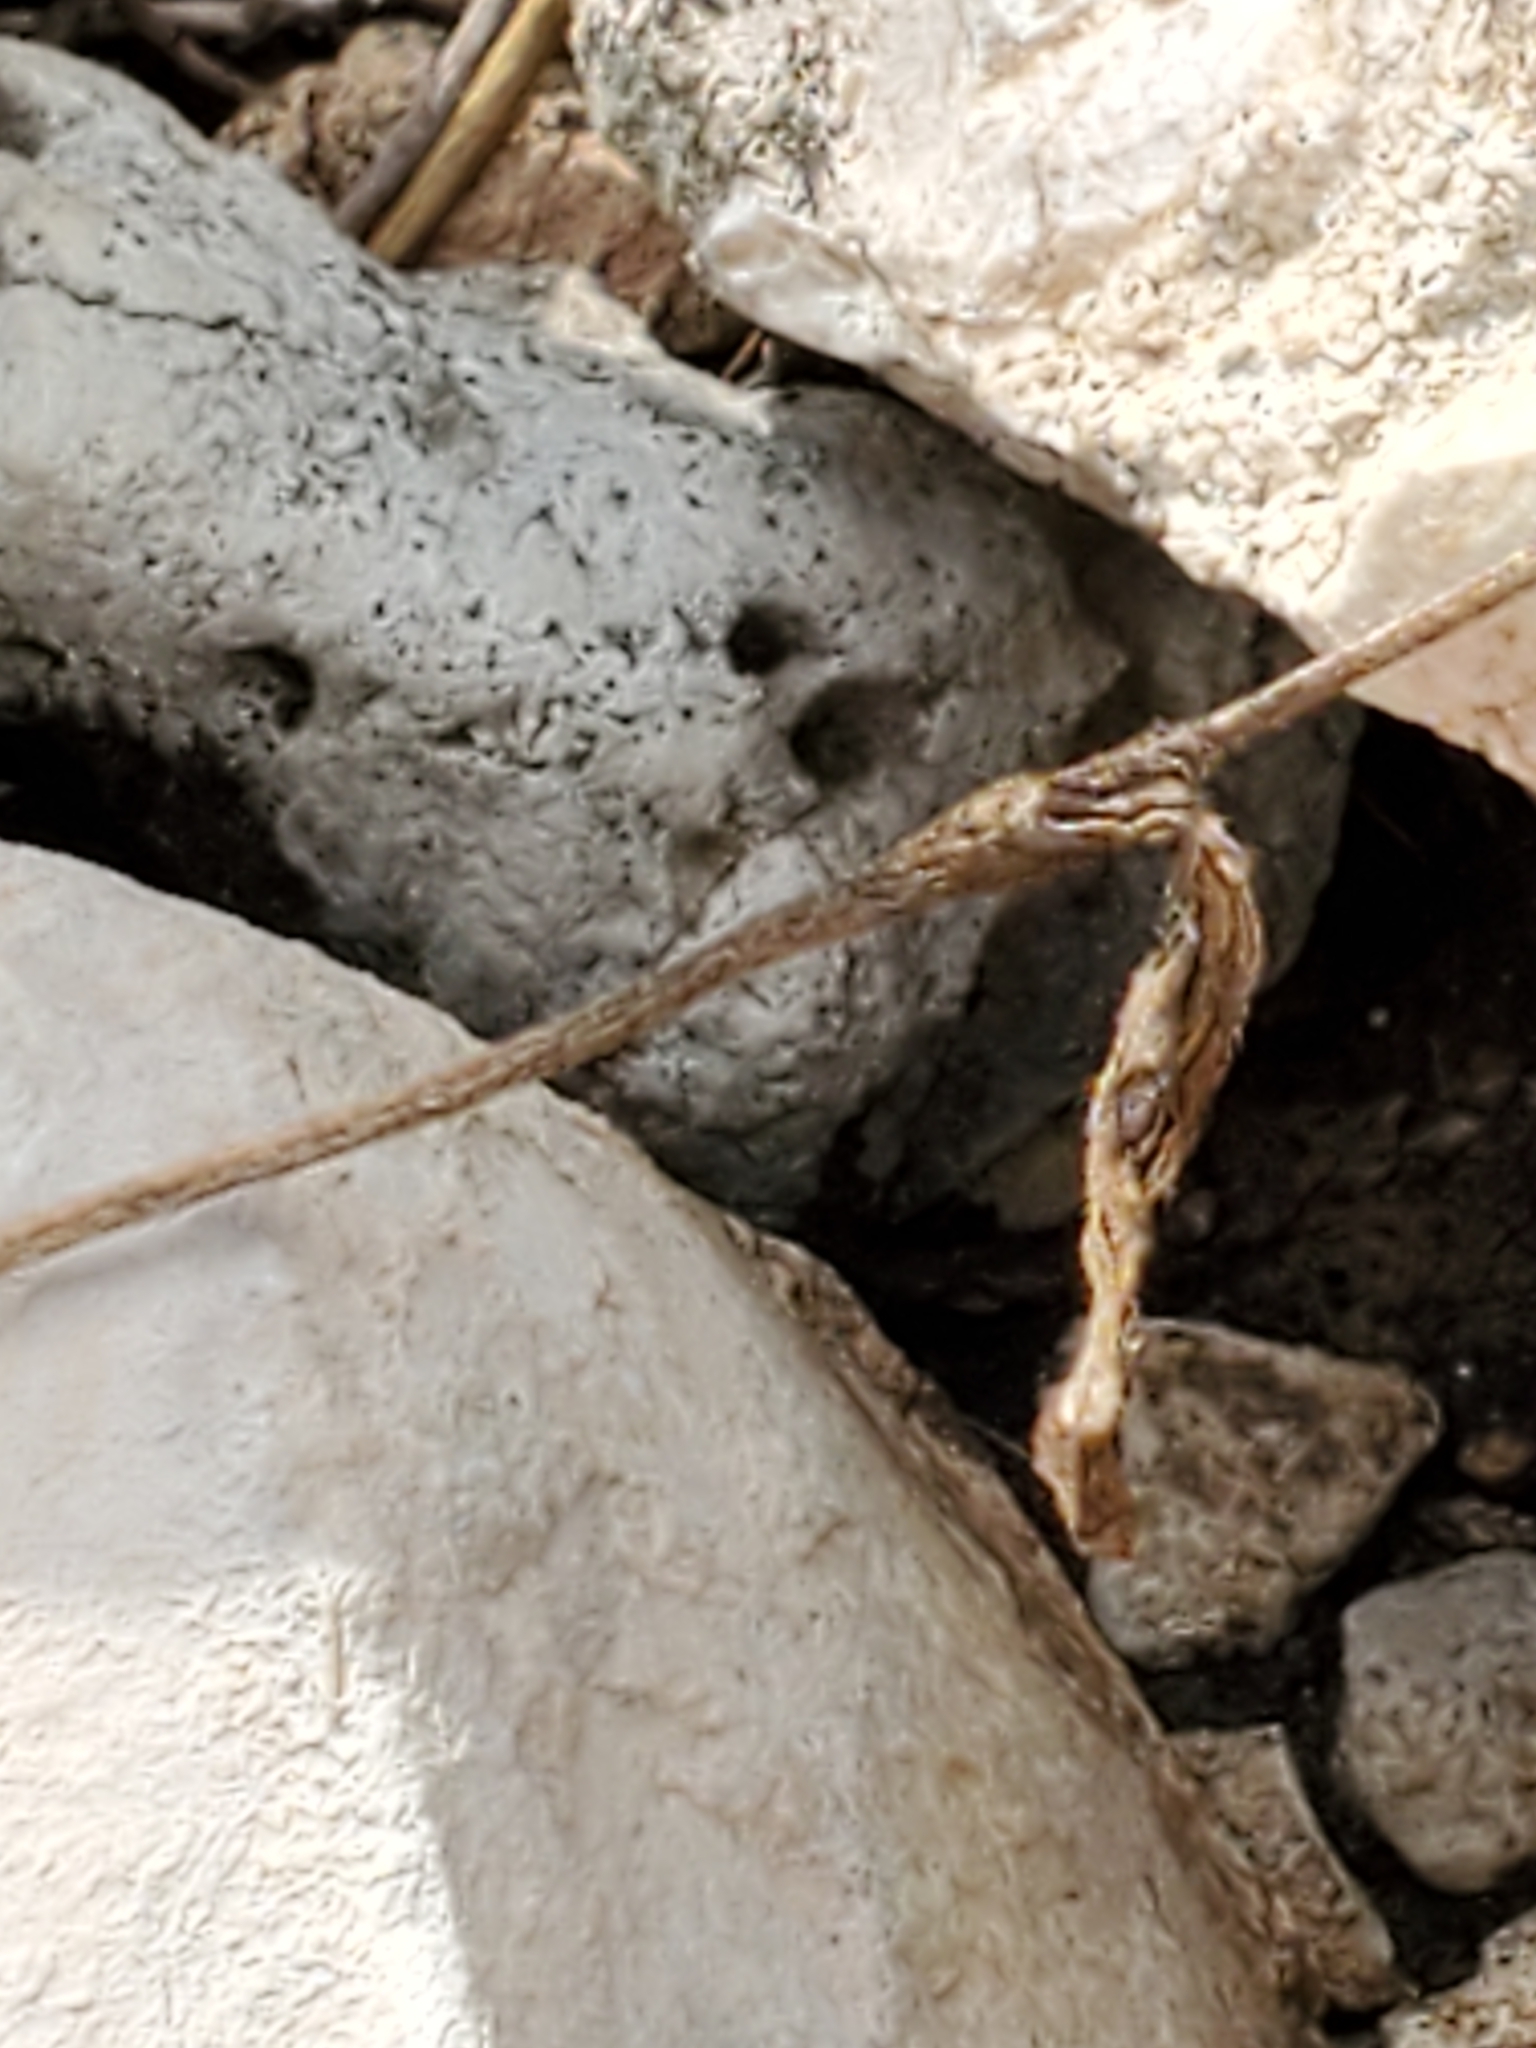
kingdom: Plantae
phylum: Tracheophyta
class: Magnoliopsida
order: Ranunculales
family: Ranunculaceae
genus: Anemone
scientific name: Anemone edwardsiana
